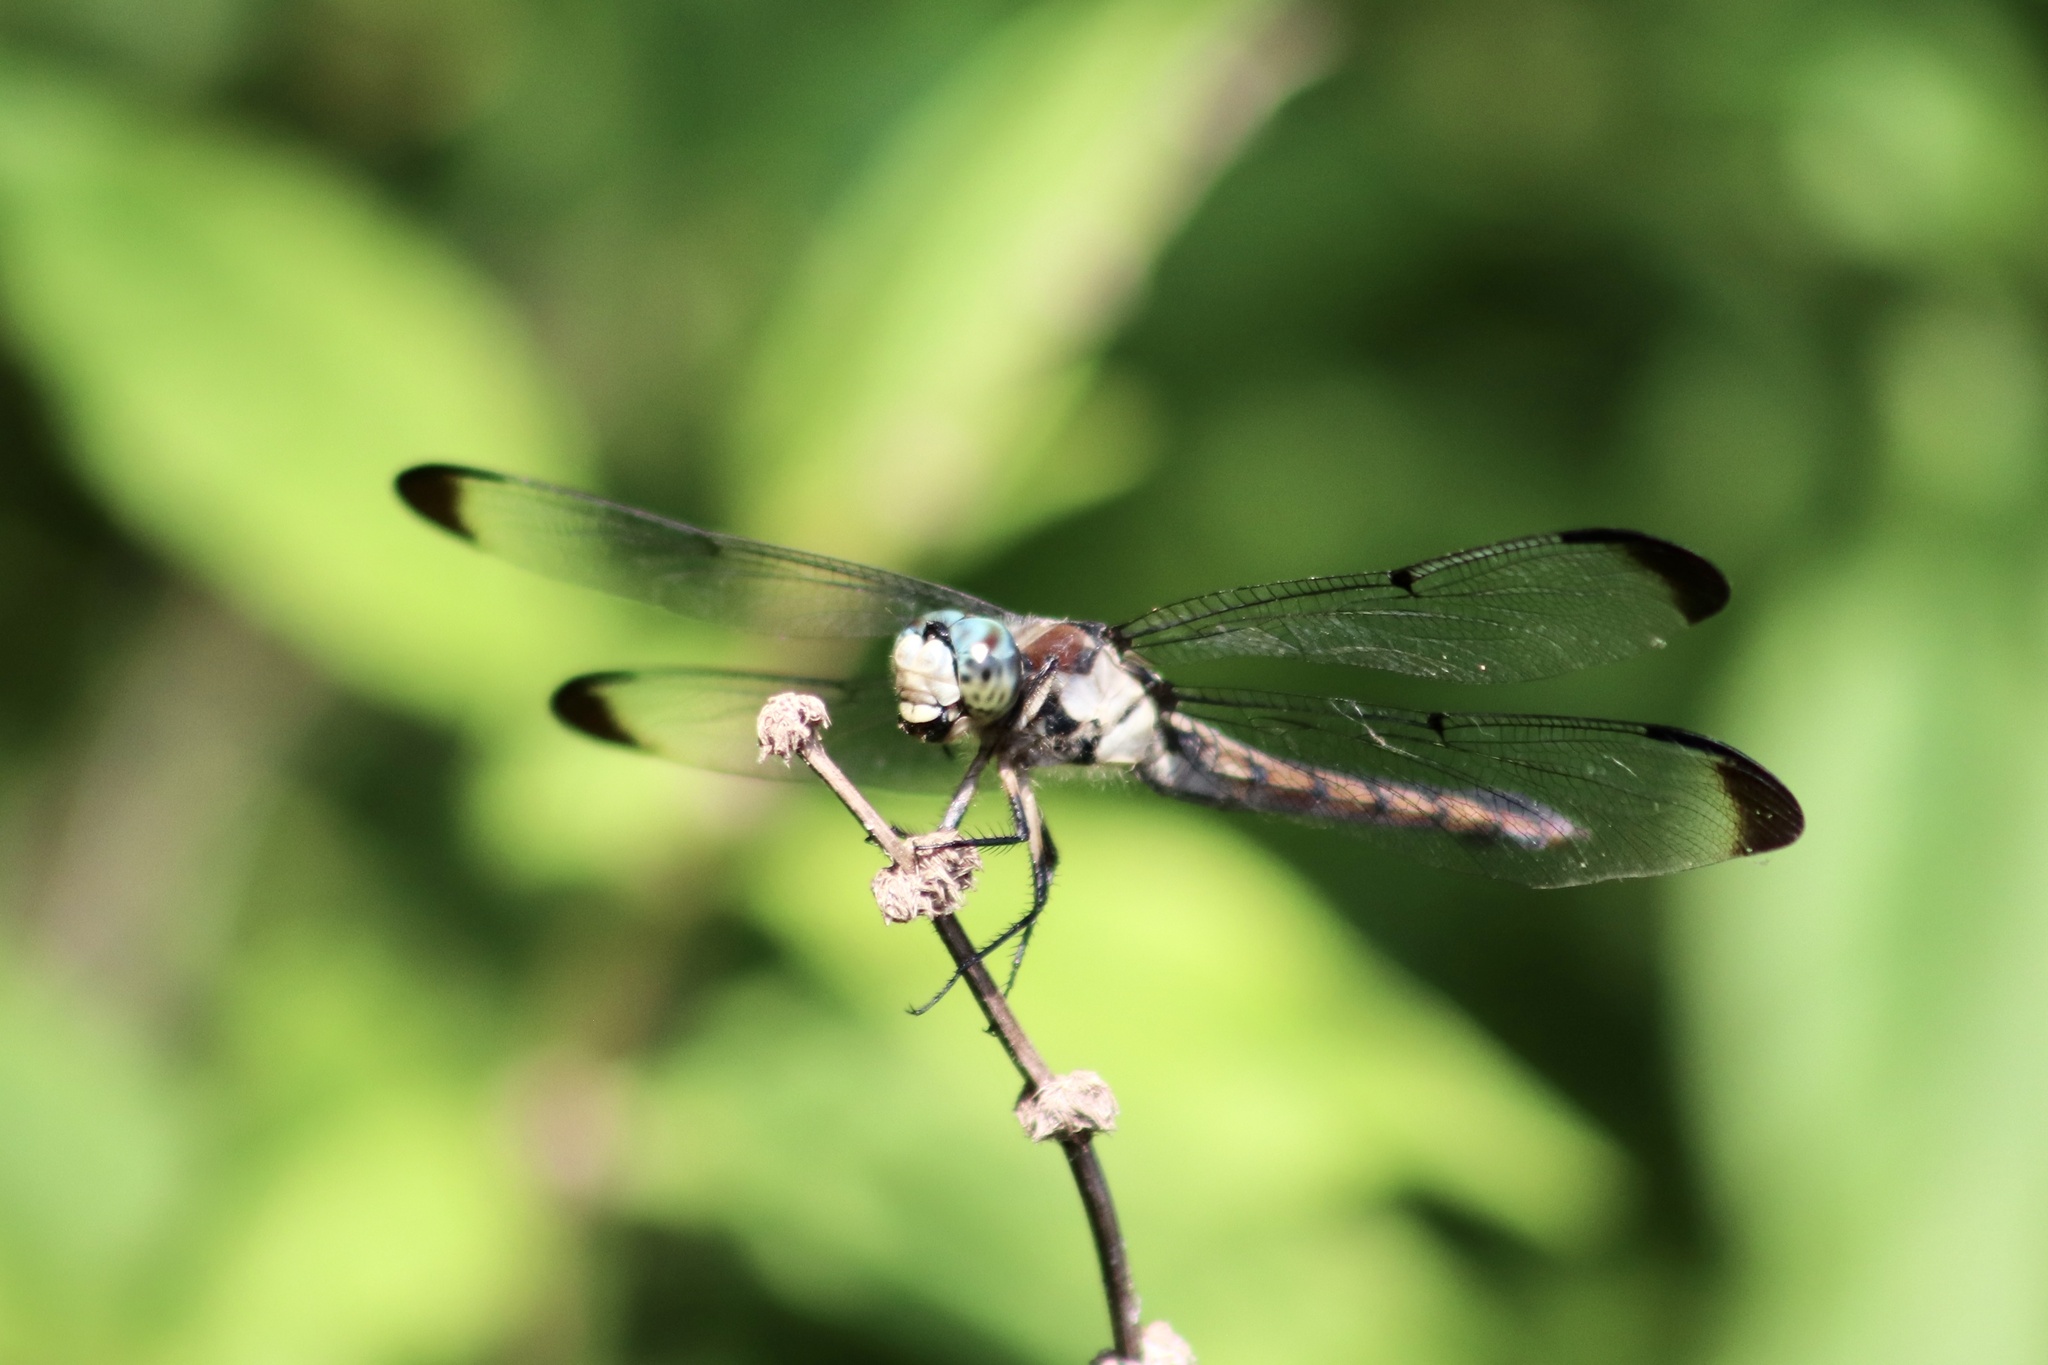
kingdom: Animalia
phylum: Arthropoda
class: Insecta
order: Odonata
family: Libellulidae
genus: Libellula
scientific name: Libellula vibrans
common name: Great blue skimmer
